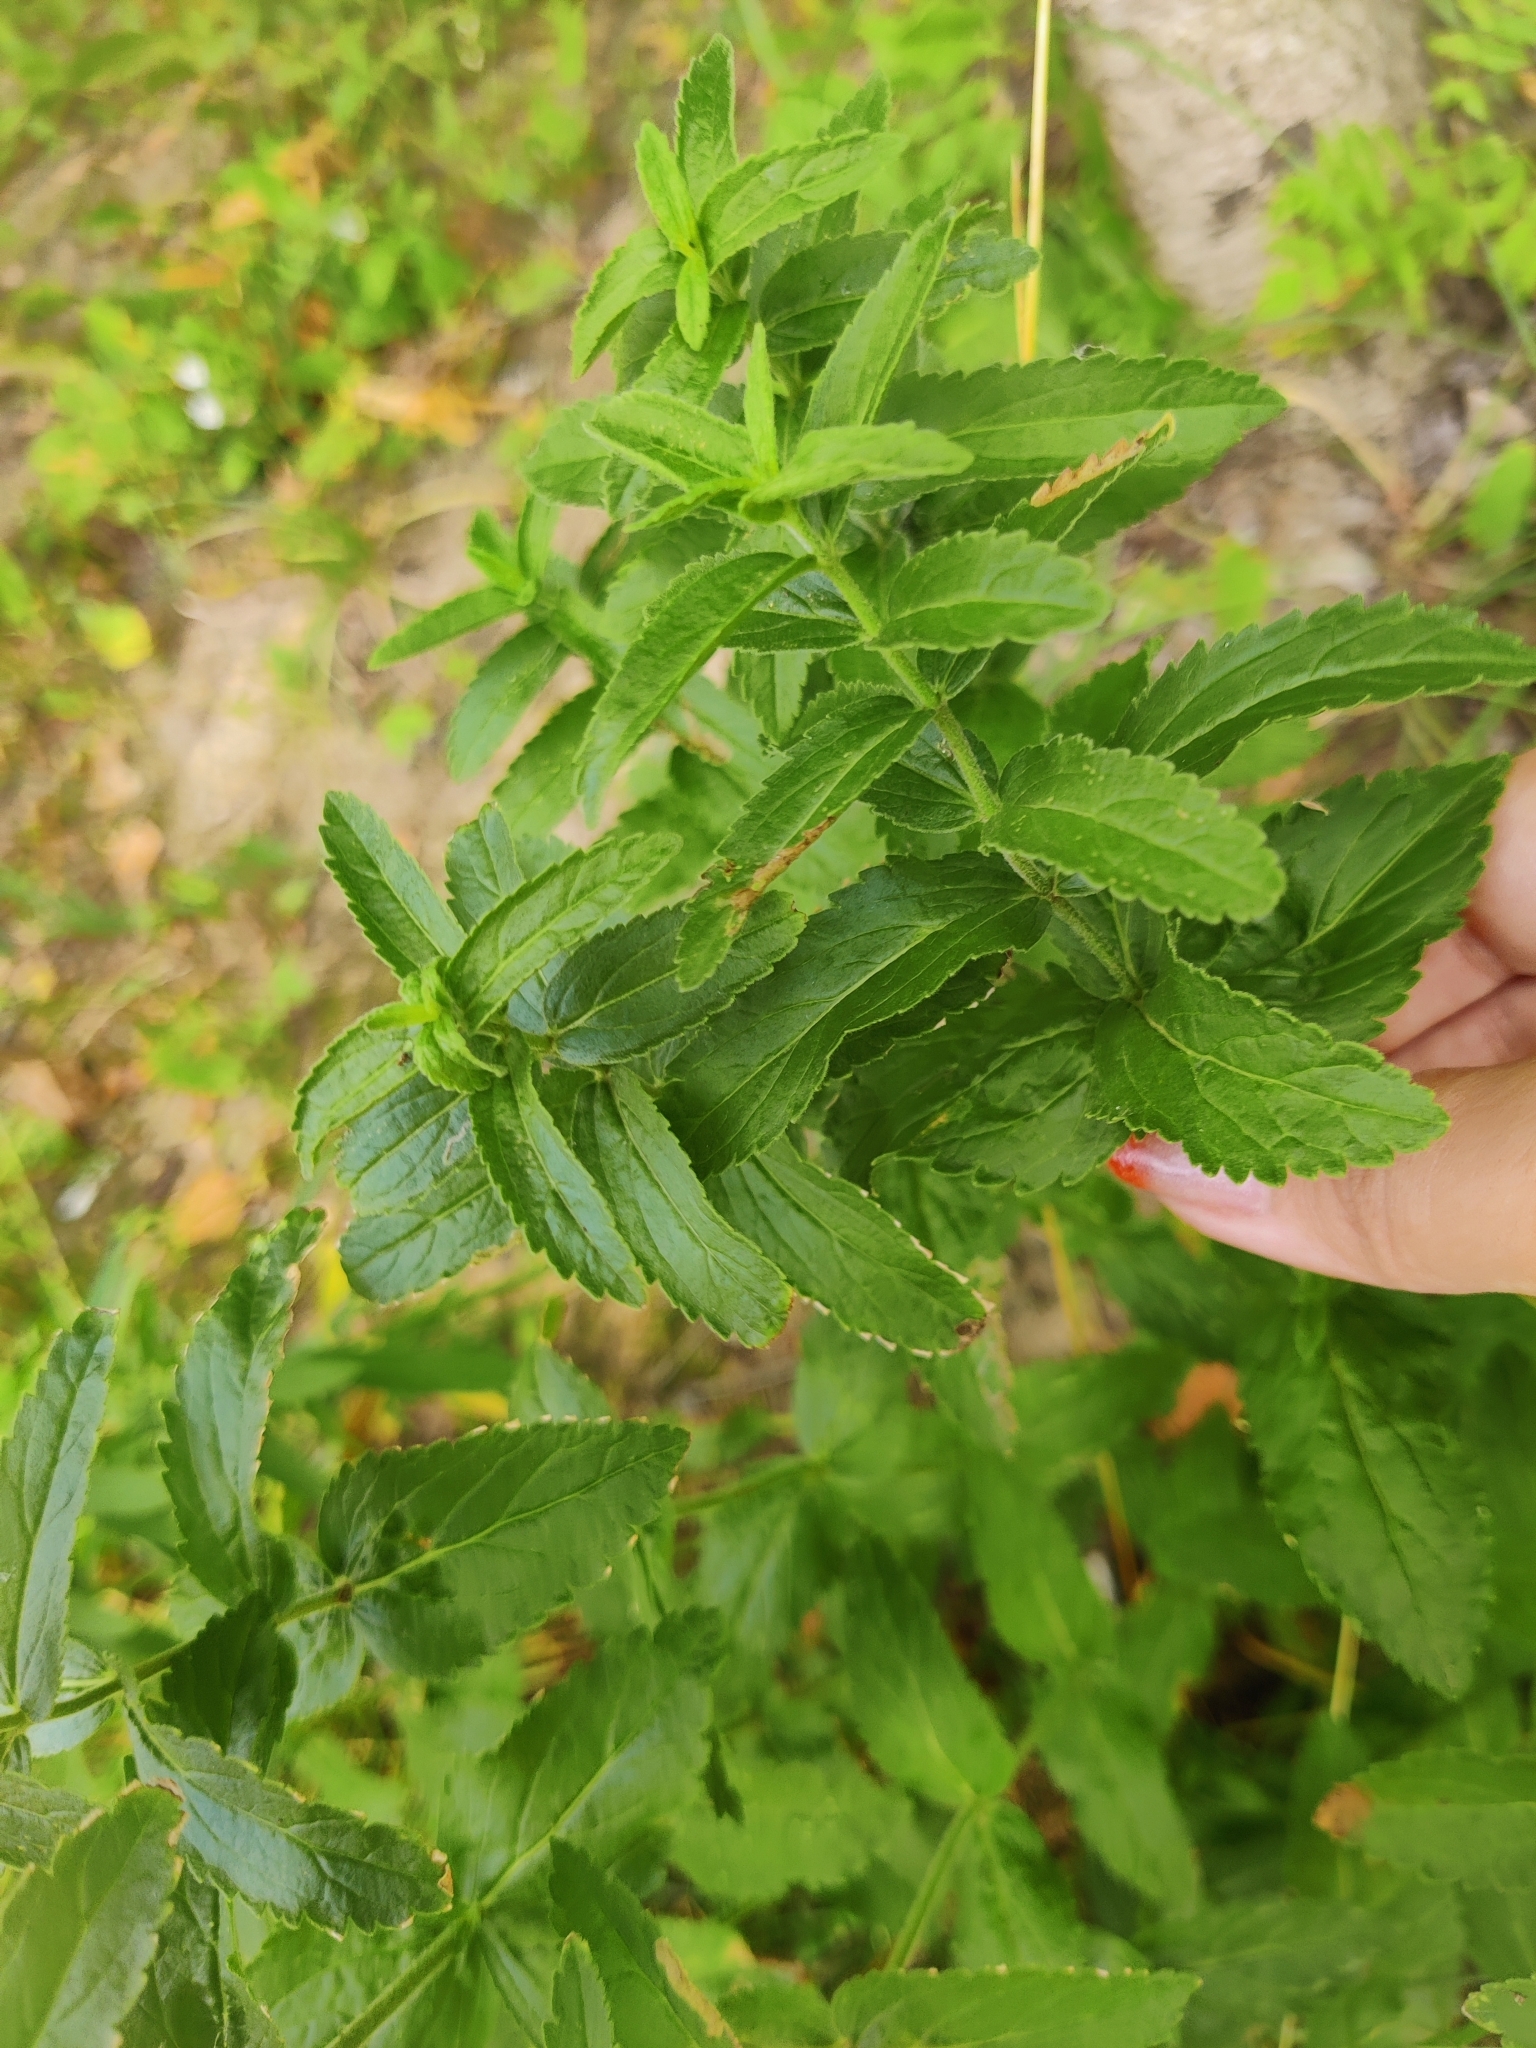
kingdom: Plantae
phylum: Tracheophyta
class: Magnoliopsida
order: Lamiales
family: Plantaginaceae
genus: Veronica
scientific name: Veronica teucrium
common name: Large speedwell
